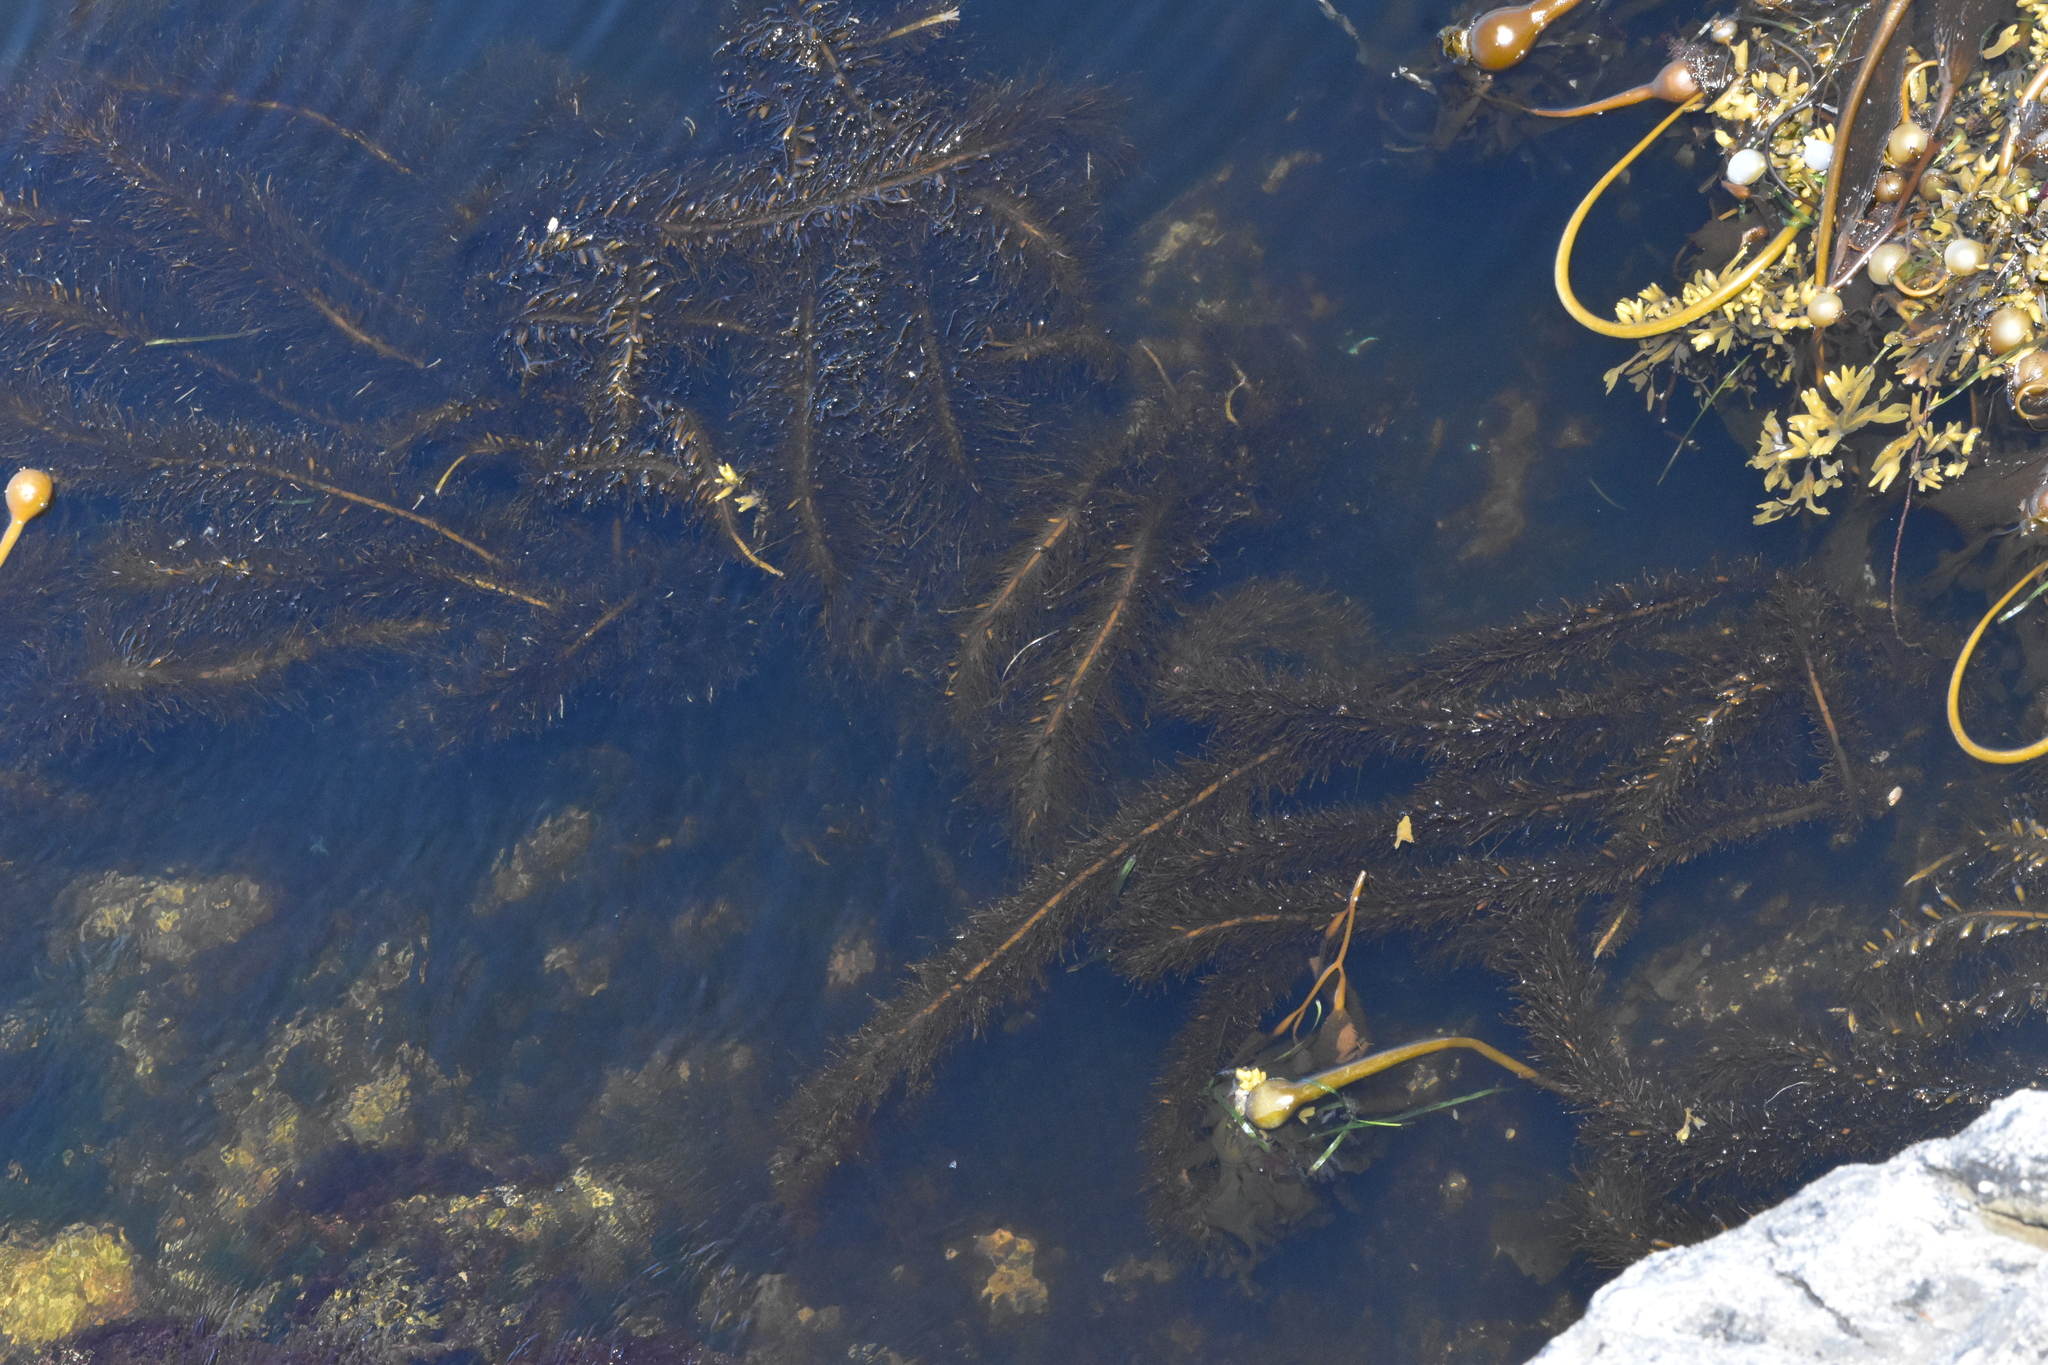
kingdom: Chromista
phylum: Ochrophyta
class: Phaeophyceae
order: Laminariales
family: Lessoniaceae
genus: Egregia
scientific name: Egregia menziesii
